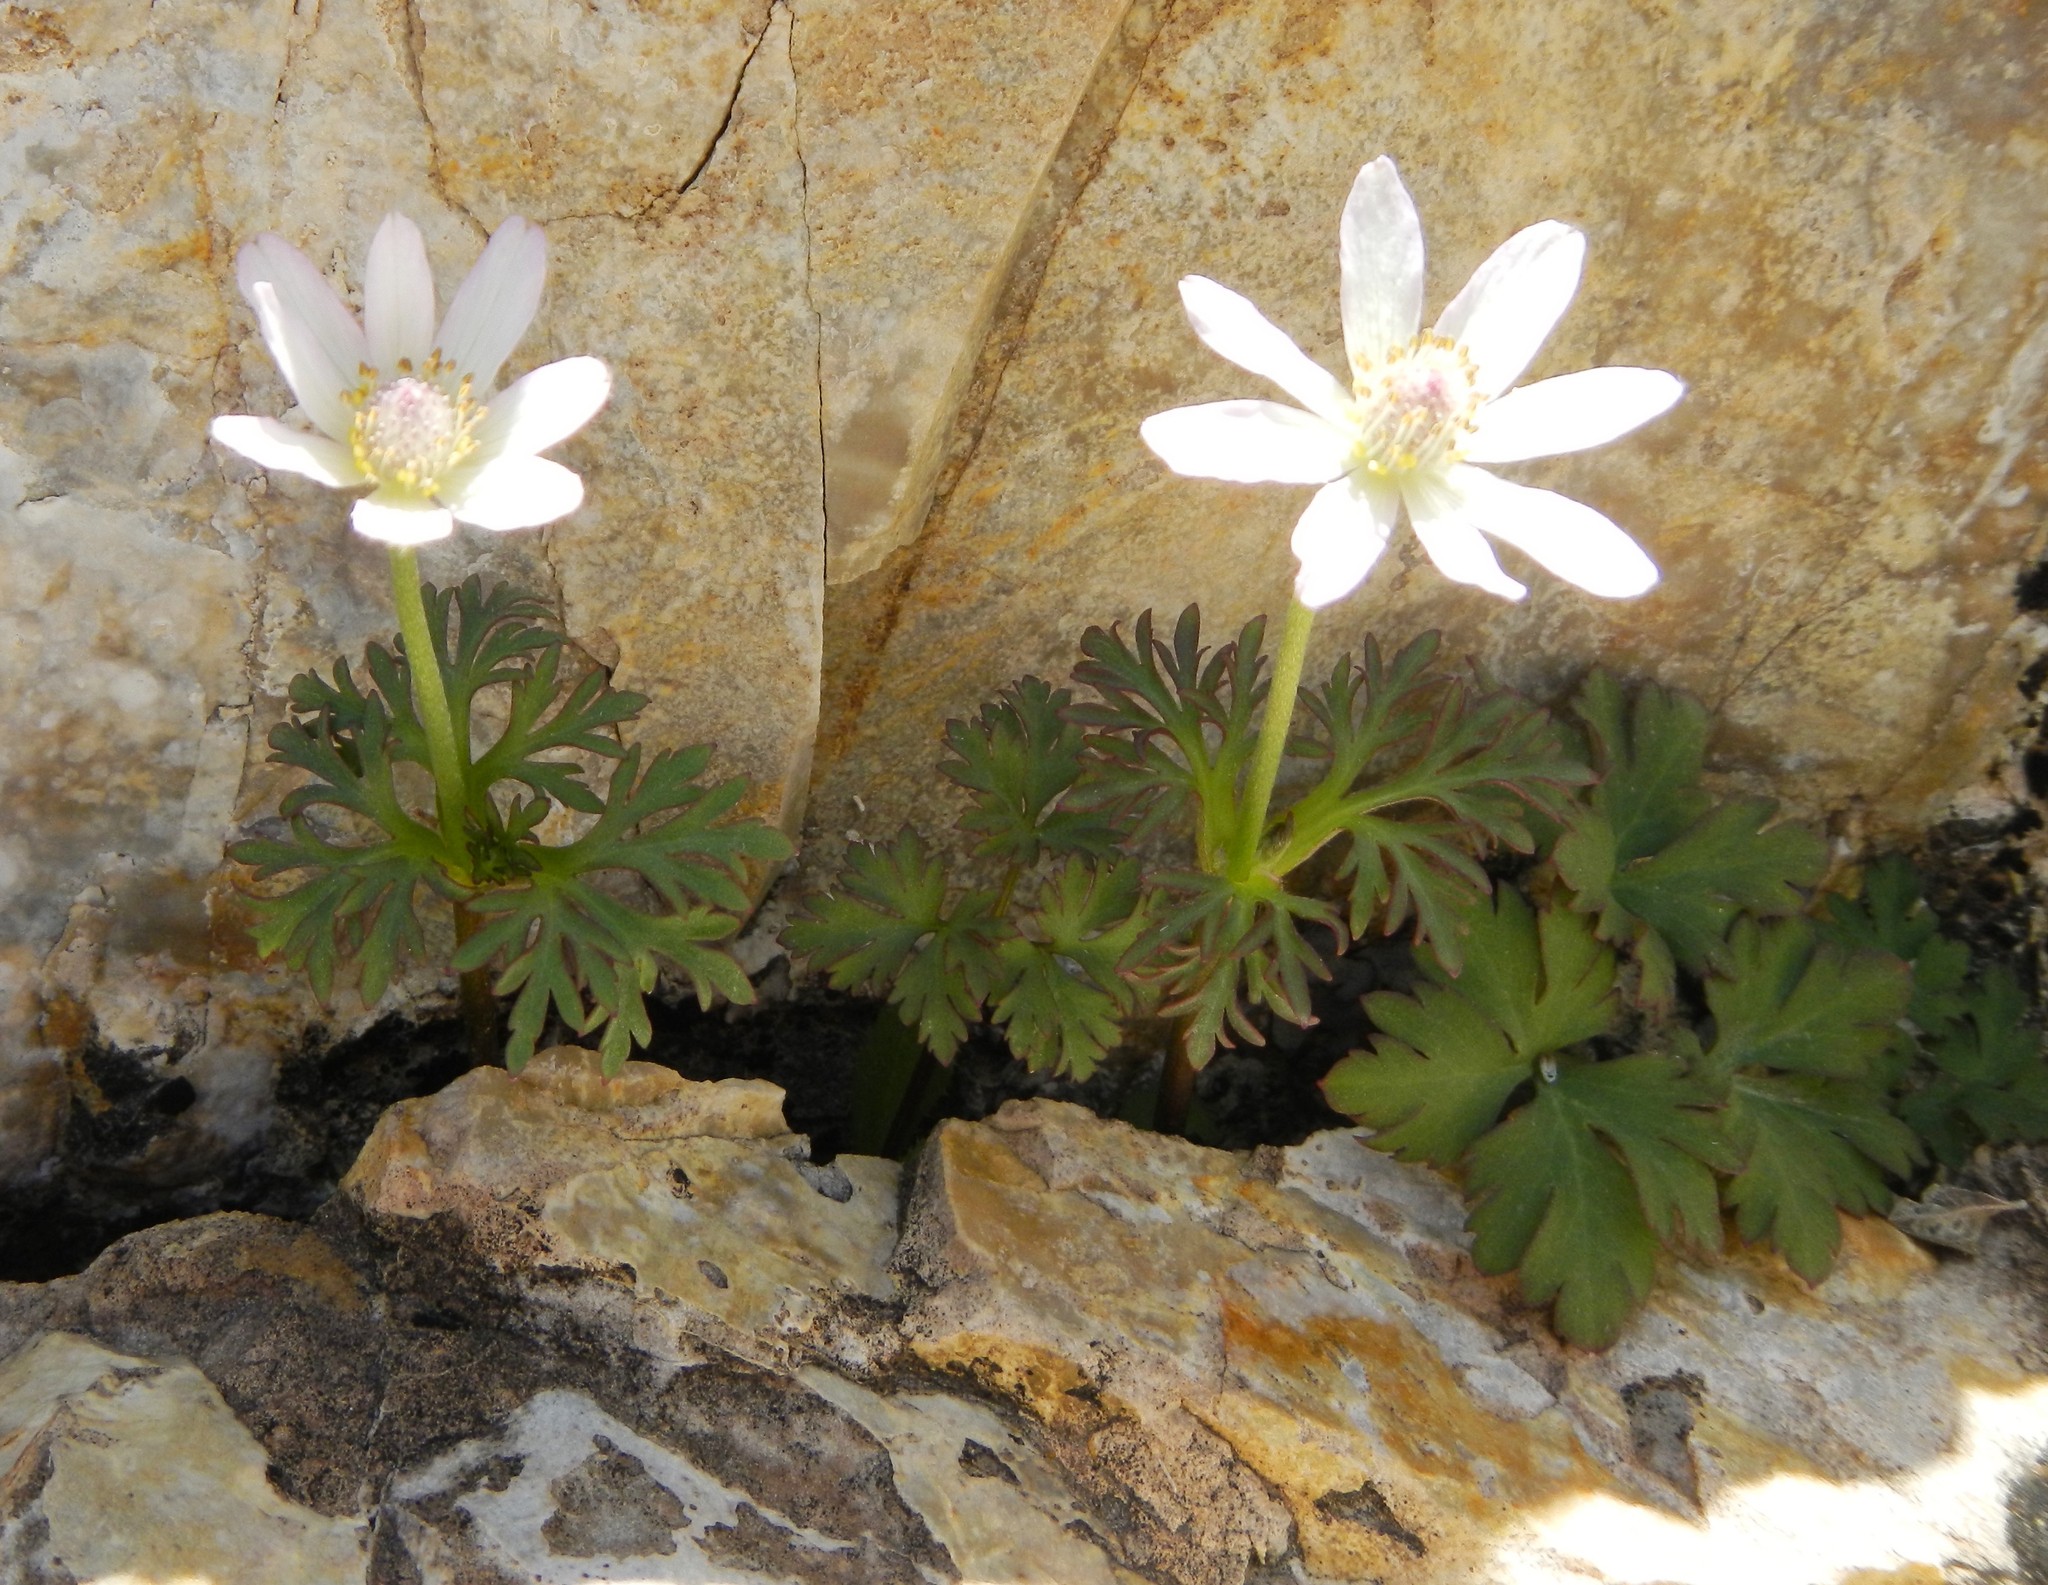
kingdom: Plantae
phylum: Tracheophyta
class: Magnoliopsida
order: Ranunculales
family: Ranunculaceae
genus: Anemone
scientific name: Anemone tuberosa
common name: Desert anemone
